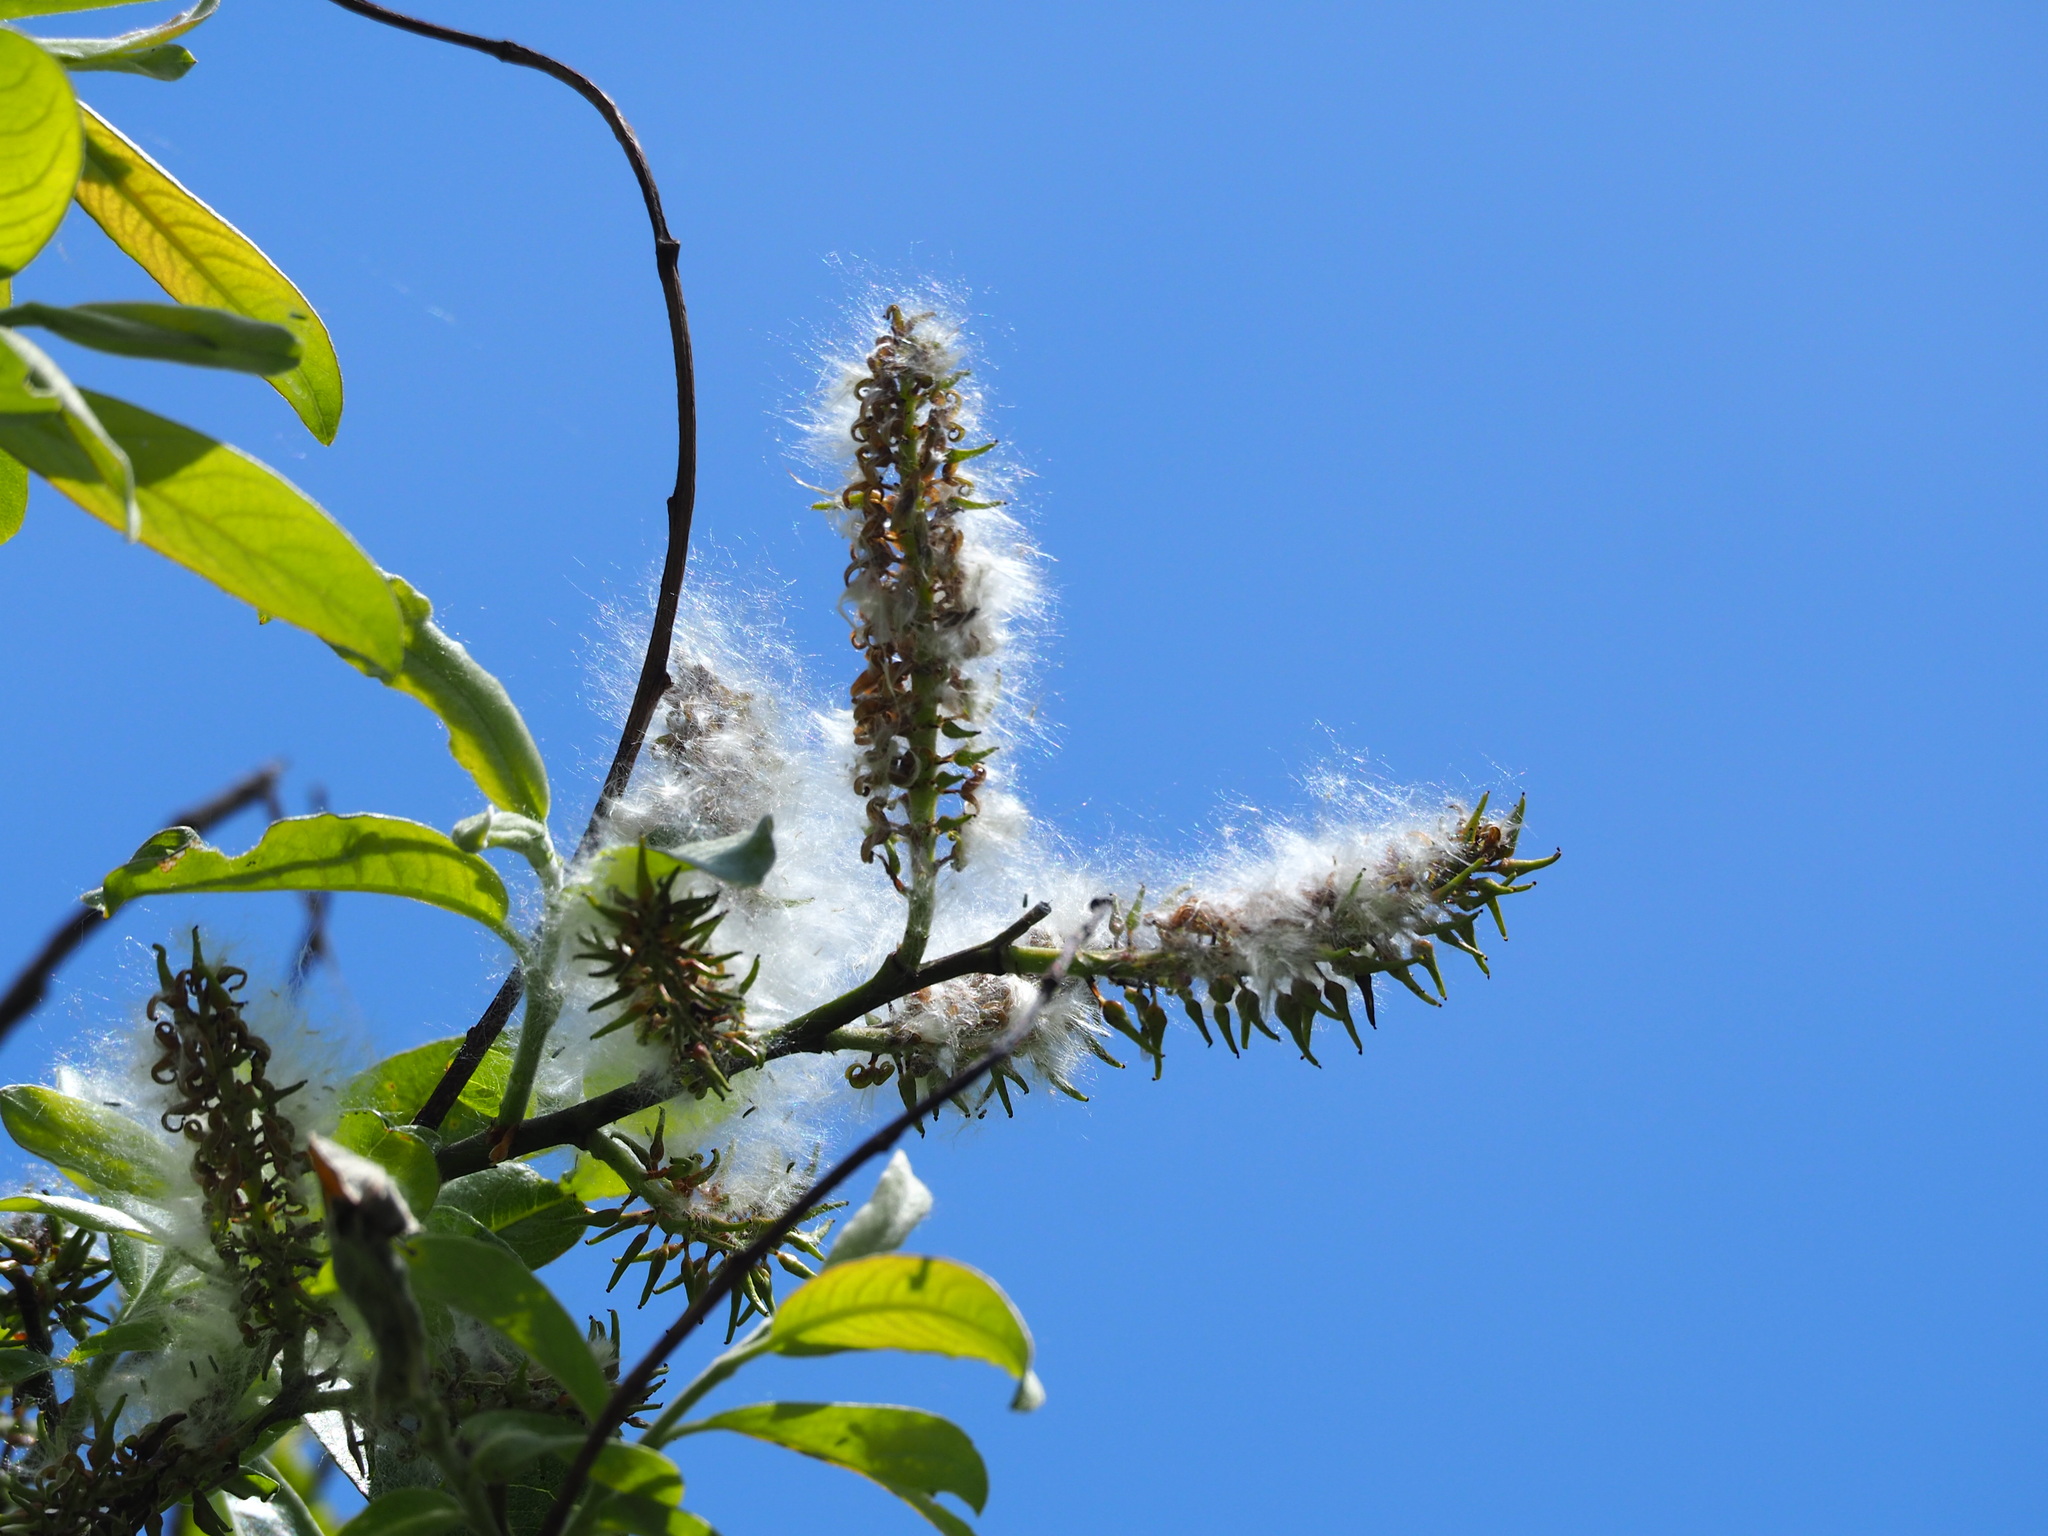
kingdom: Plantae
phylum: Tracheophyta
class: Magnoliopsida
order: Malpighiales
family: Salicaceae
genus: Salix
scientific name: Salix fulvopubescens
